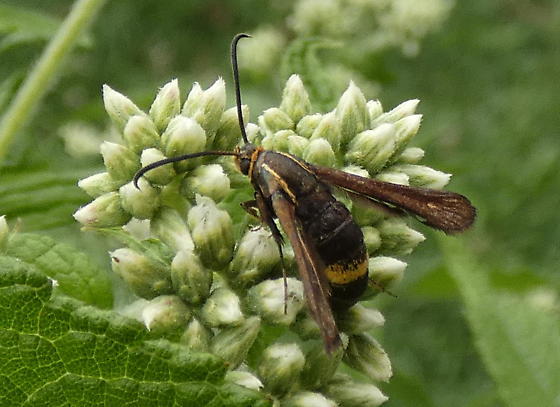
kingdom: Animalia
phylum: Arthropoda
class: Insecta
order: Lepidoptera
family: Sesiidae
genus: Carmenta
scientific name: Carmenta pyralidiformis
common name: Boneset borer moth
